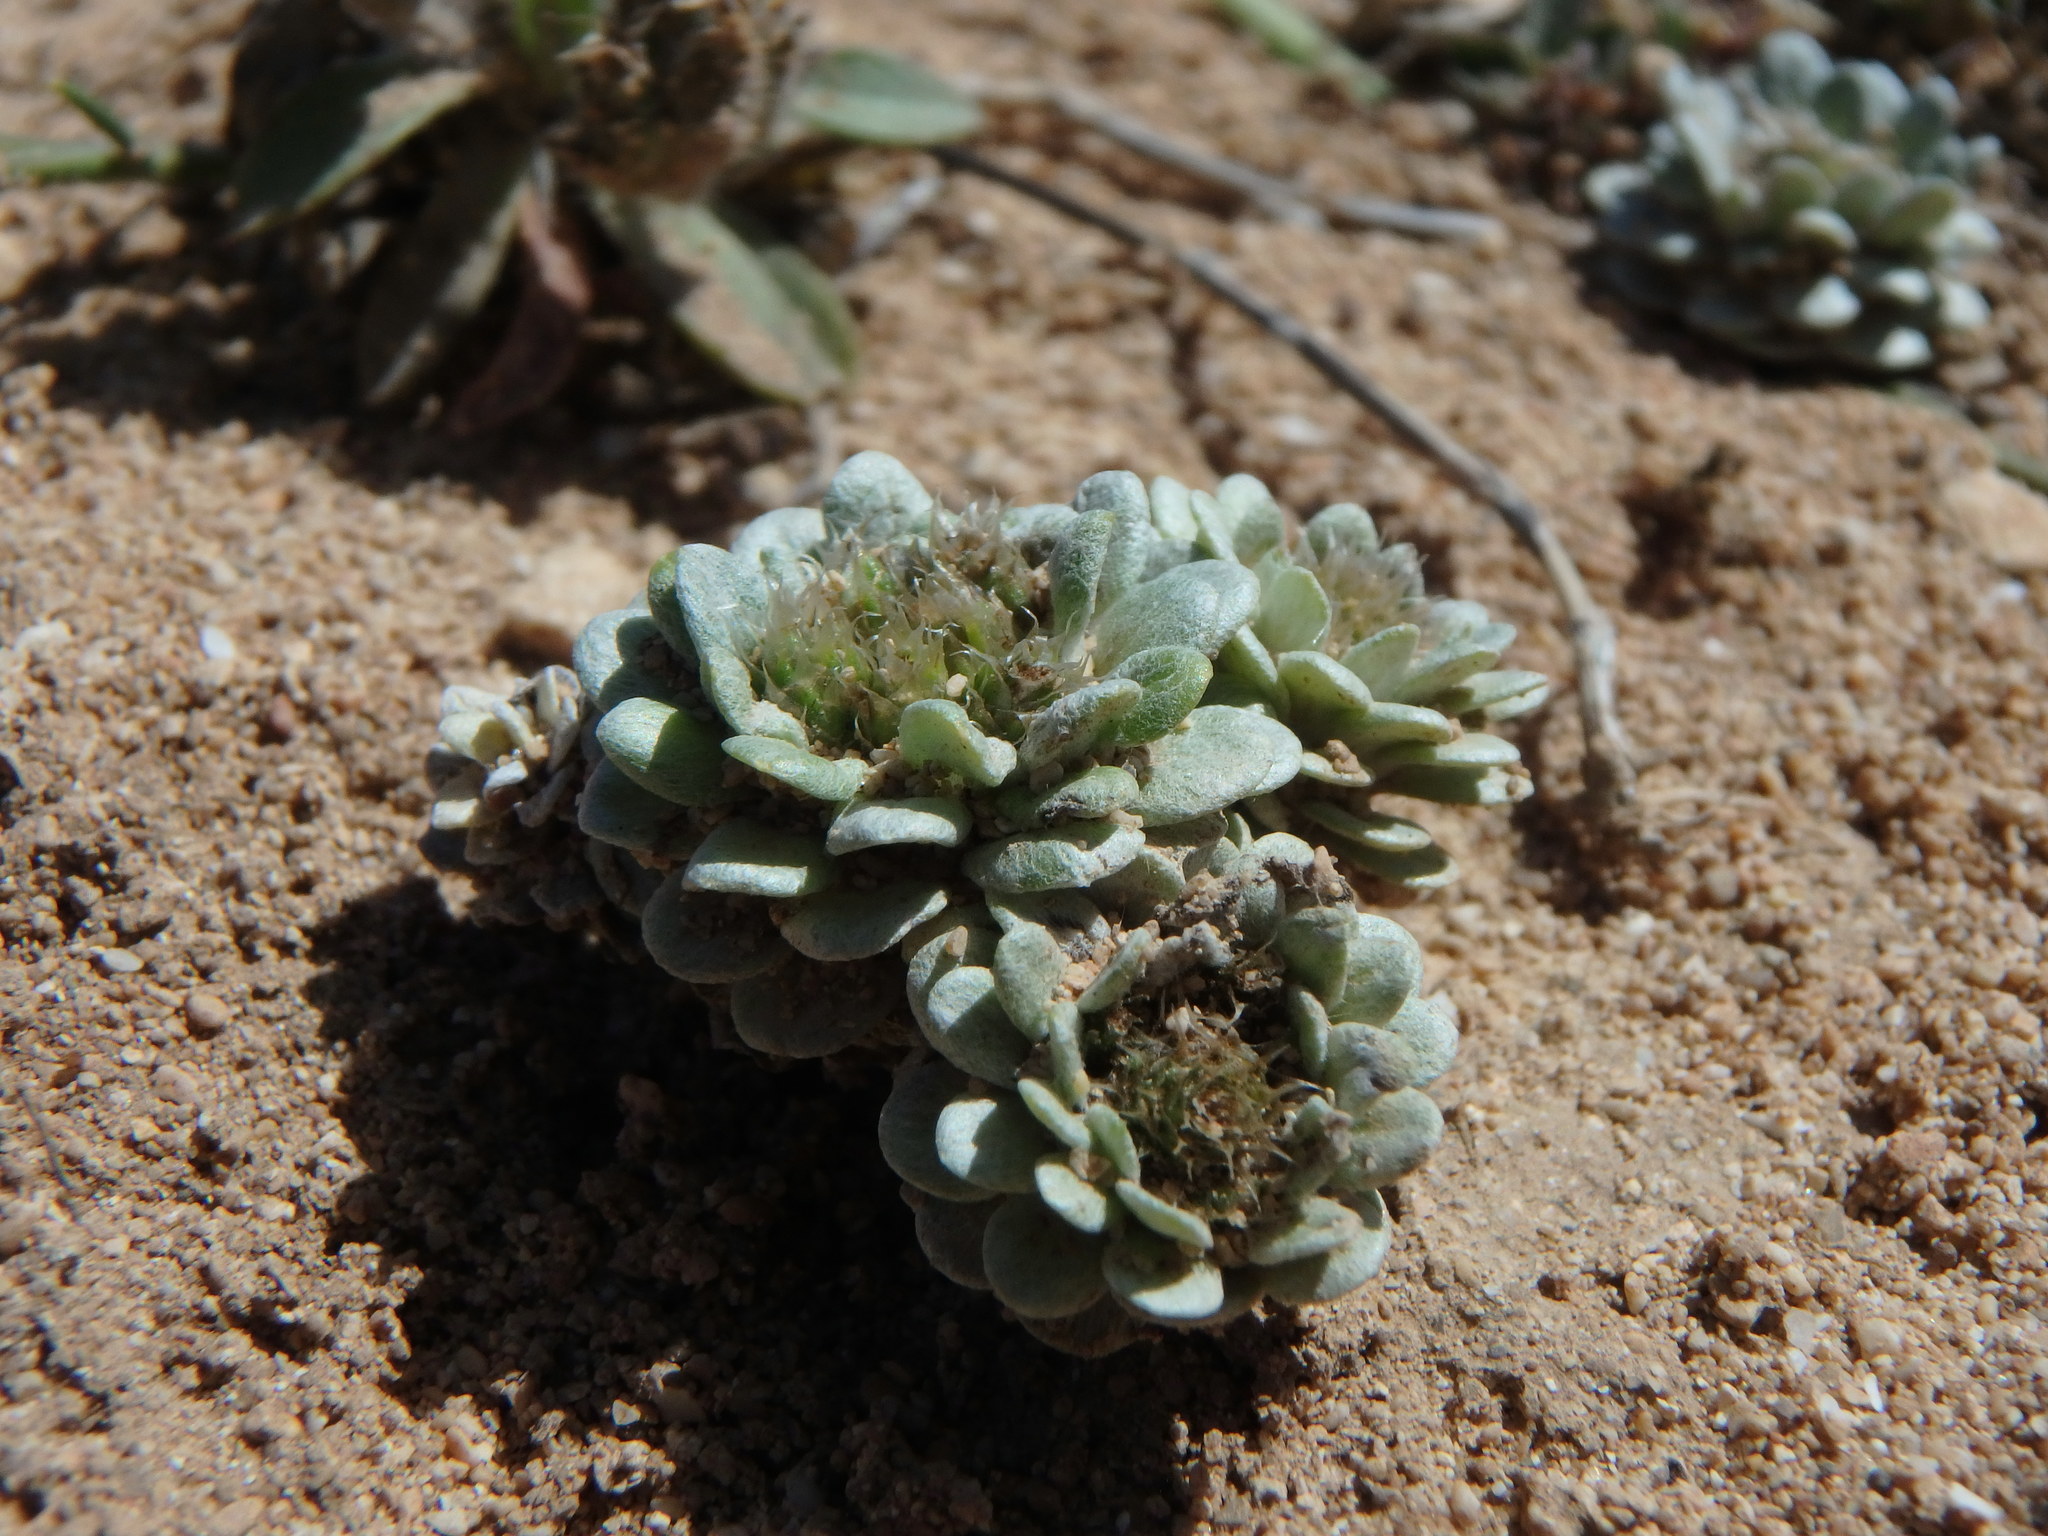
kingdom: Plantae
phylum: Tracheophyta
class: Magnoliopsida
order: Asterales
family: Asteraceae
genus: Filago
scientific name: Filago pygmaea
